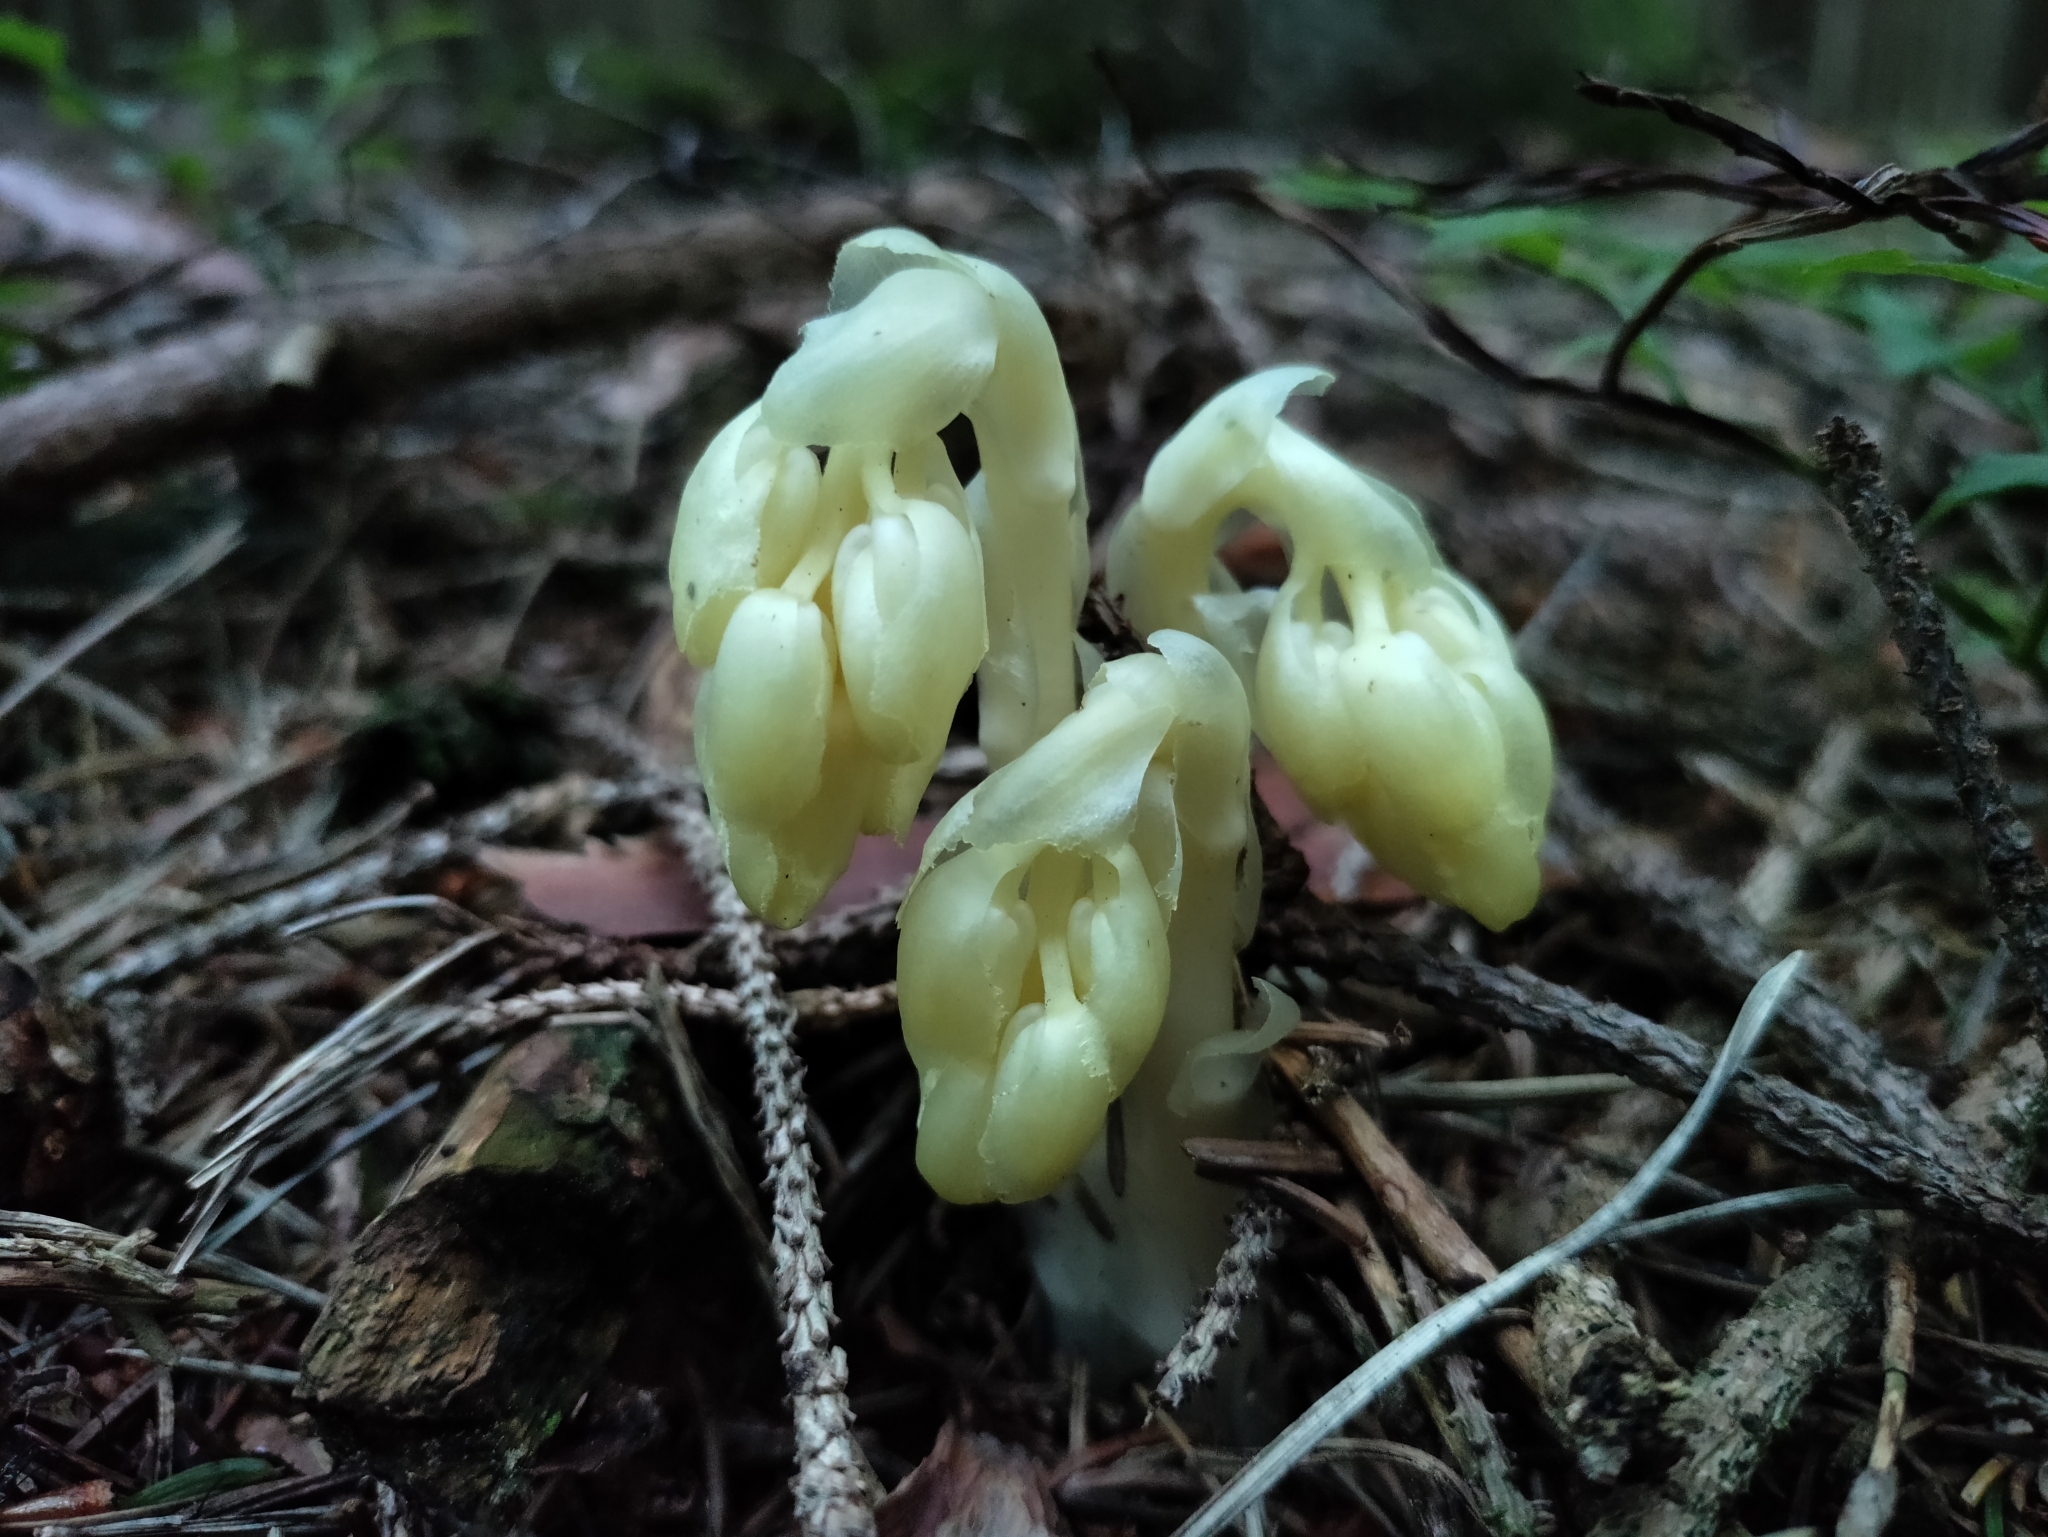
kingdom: Plantae
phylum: Tracheophyta
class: Magnoliopsida
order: Ericales
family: Ericaceae
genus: Hypopitys
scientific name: Hypopitys monotropa
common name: Yellow bird's-nest
